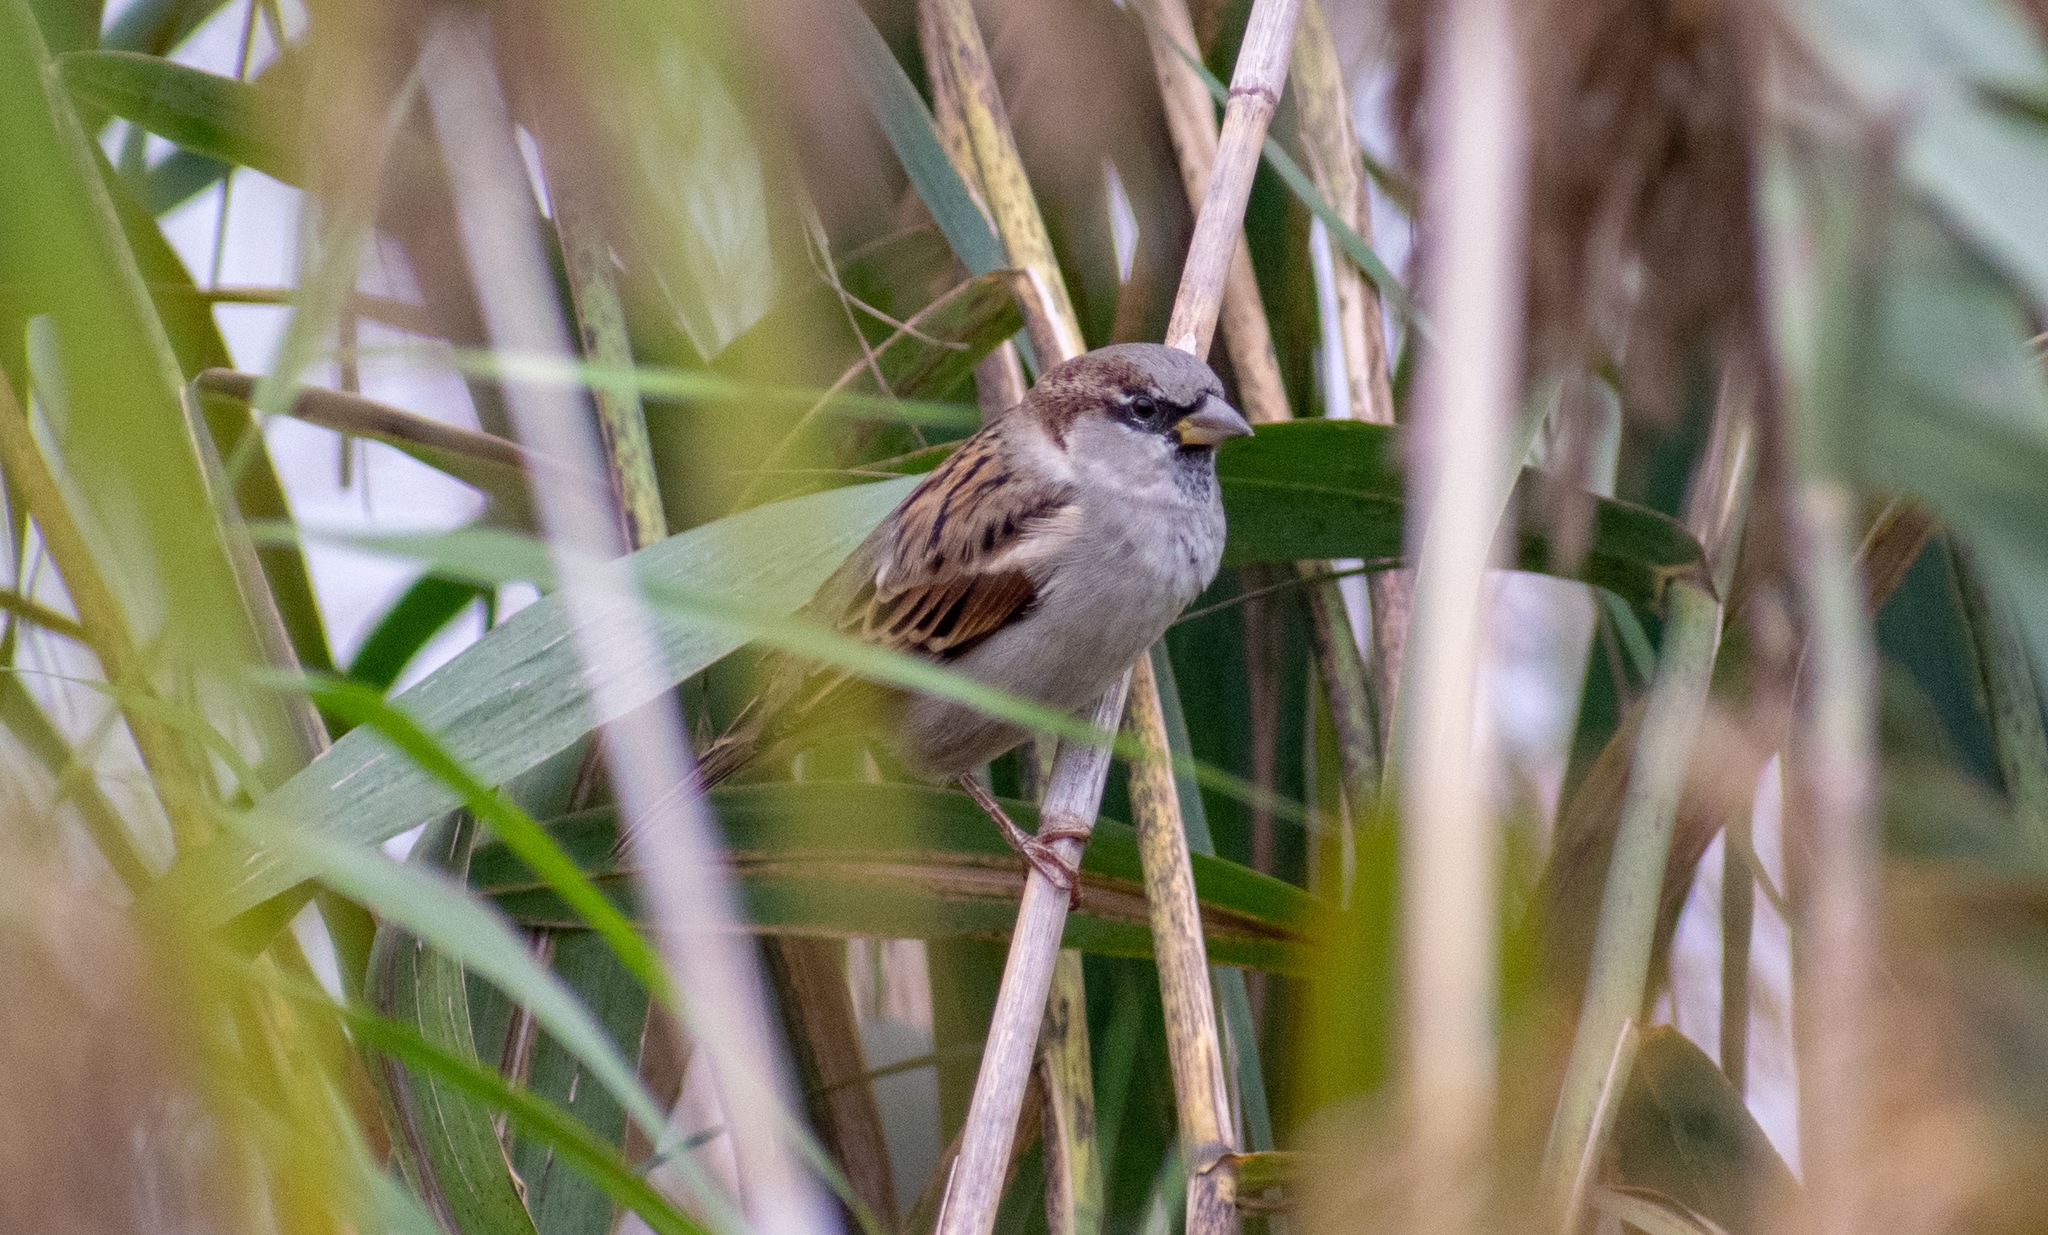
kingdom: Animalia
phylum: Chordata
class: Aves
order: Passeriformes
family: Passeridae
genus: Passer
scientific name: Passer domesticus
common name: House sparrow
